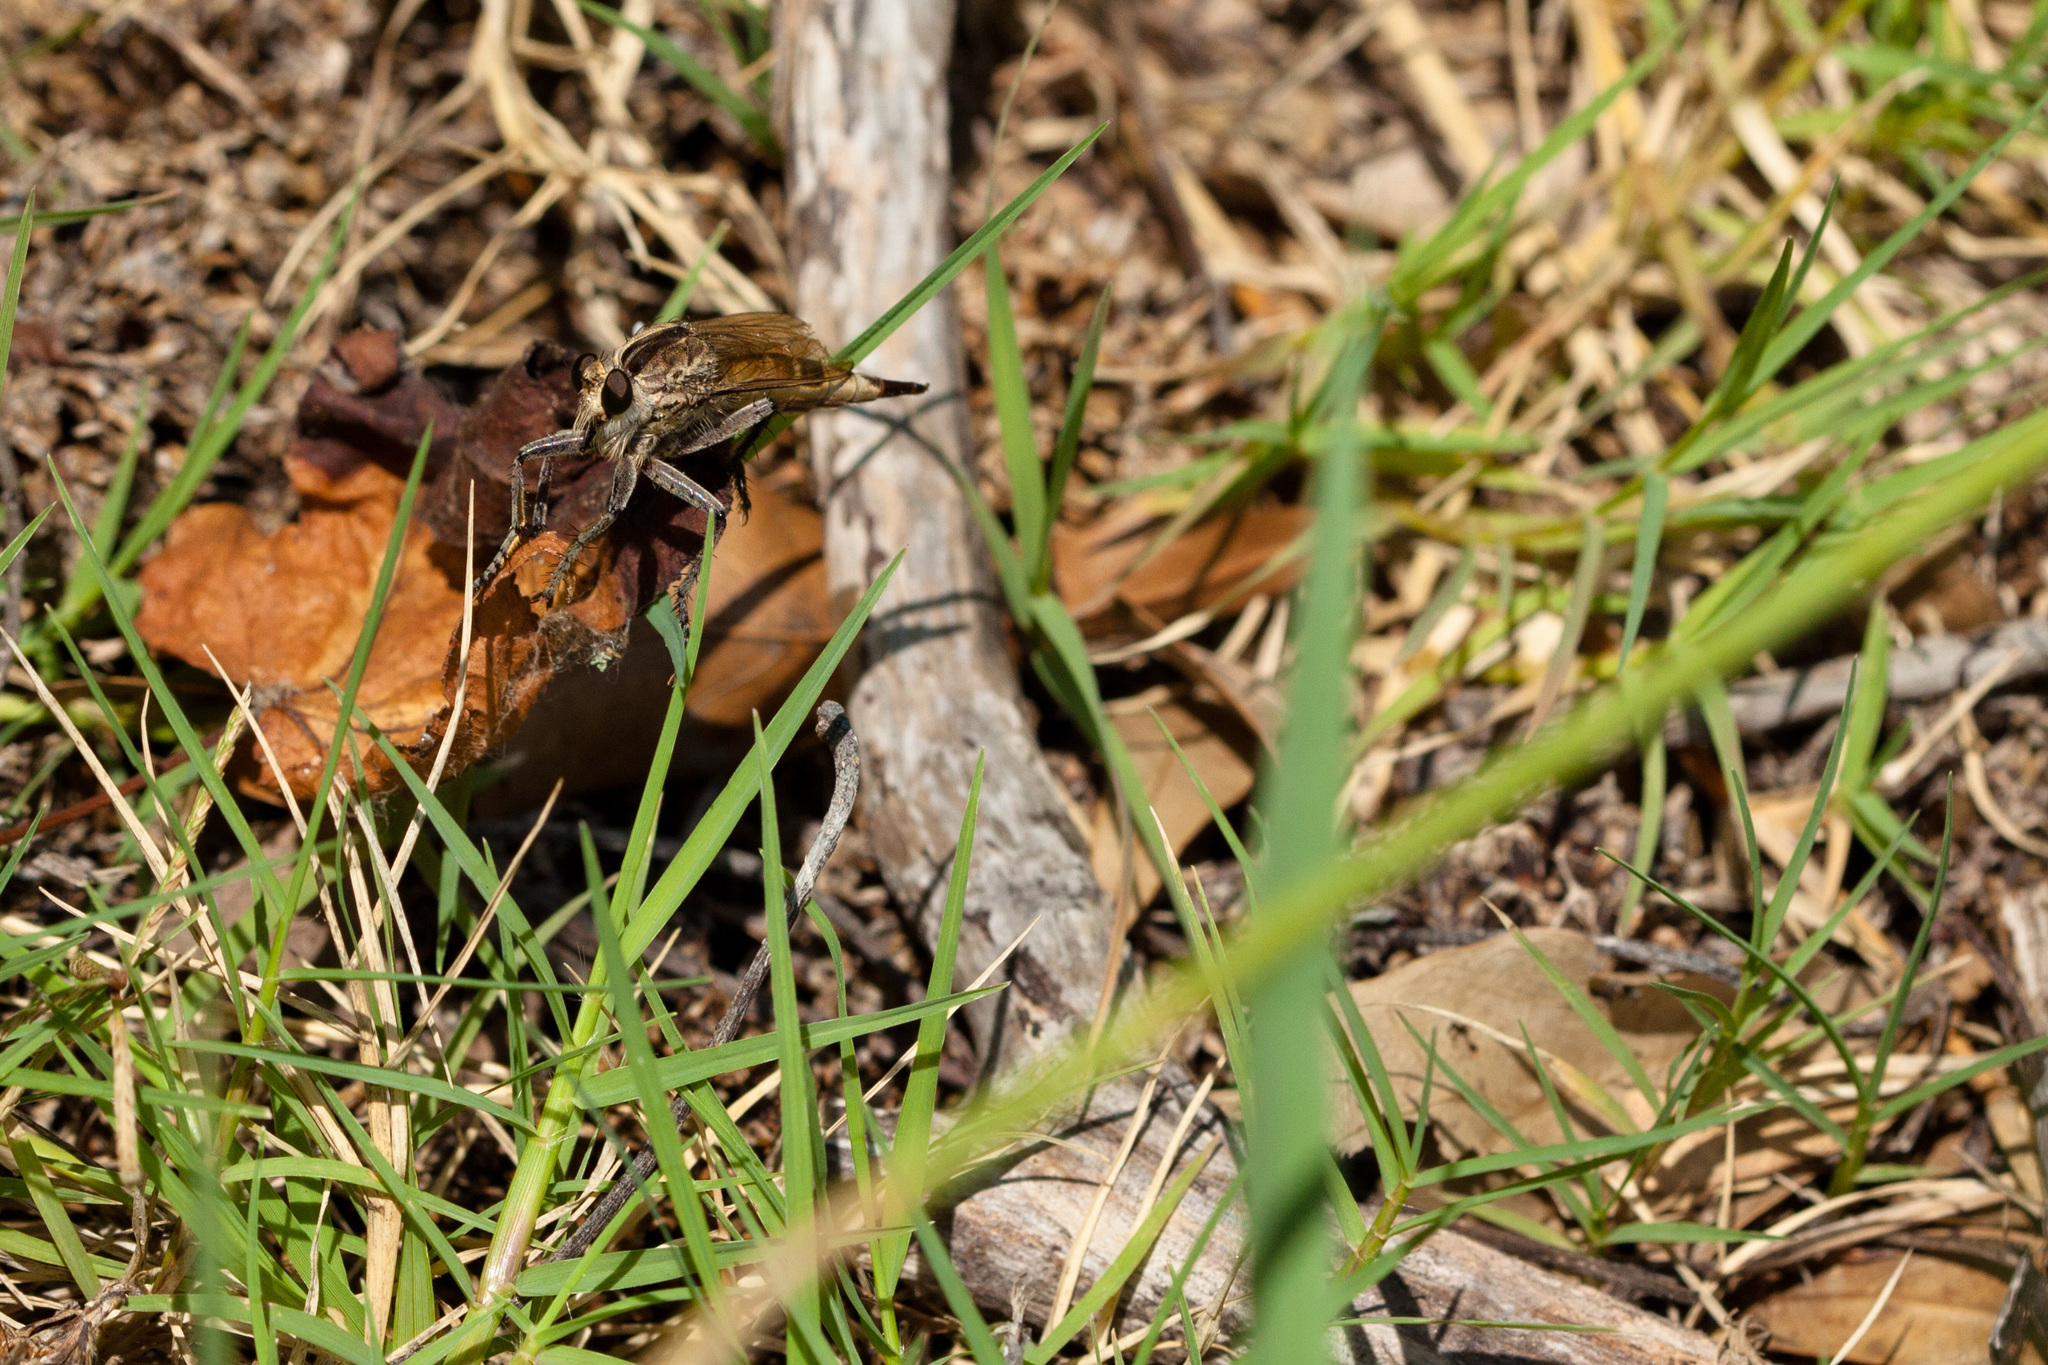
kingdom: Animalia
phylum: Arthropoda
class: Insecta
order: Diptera
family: Asilidae
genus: Triorla
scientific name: Triorla interrupta
